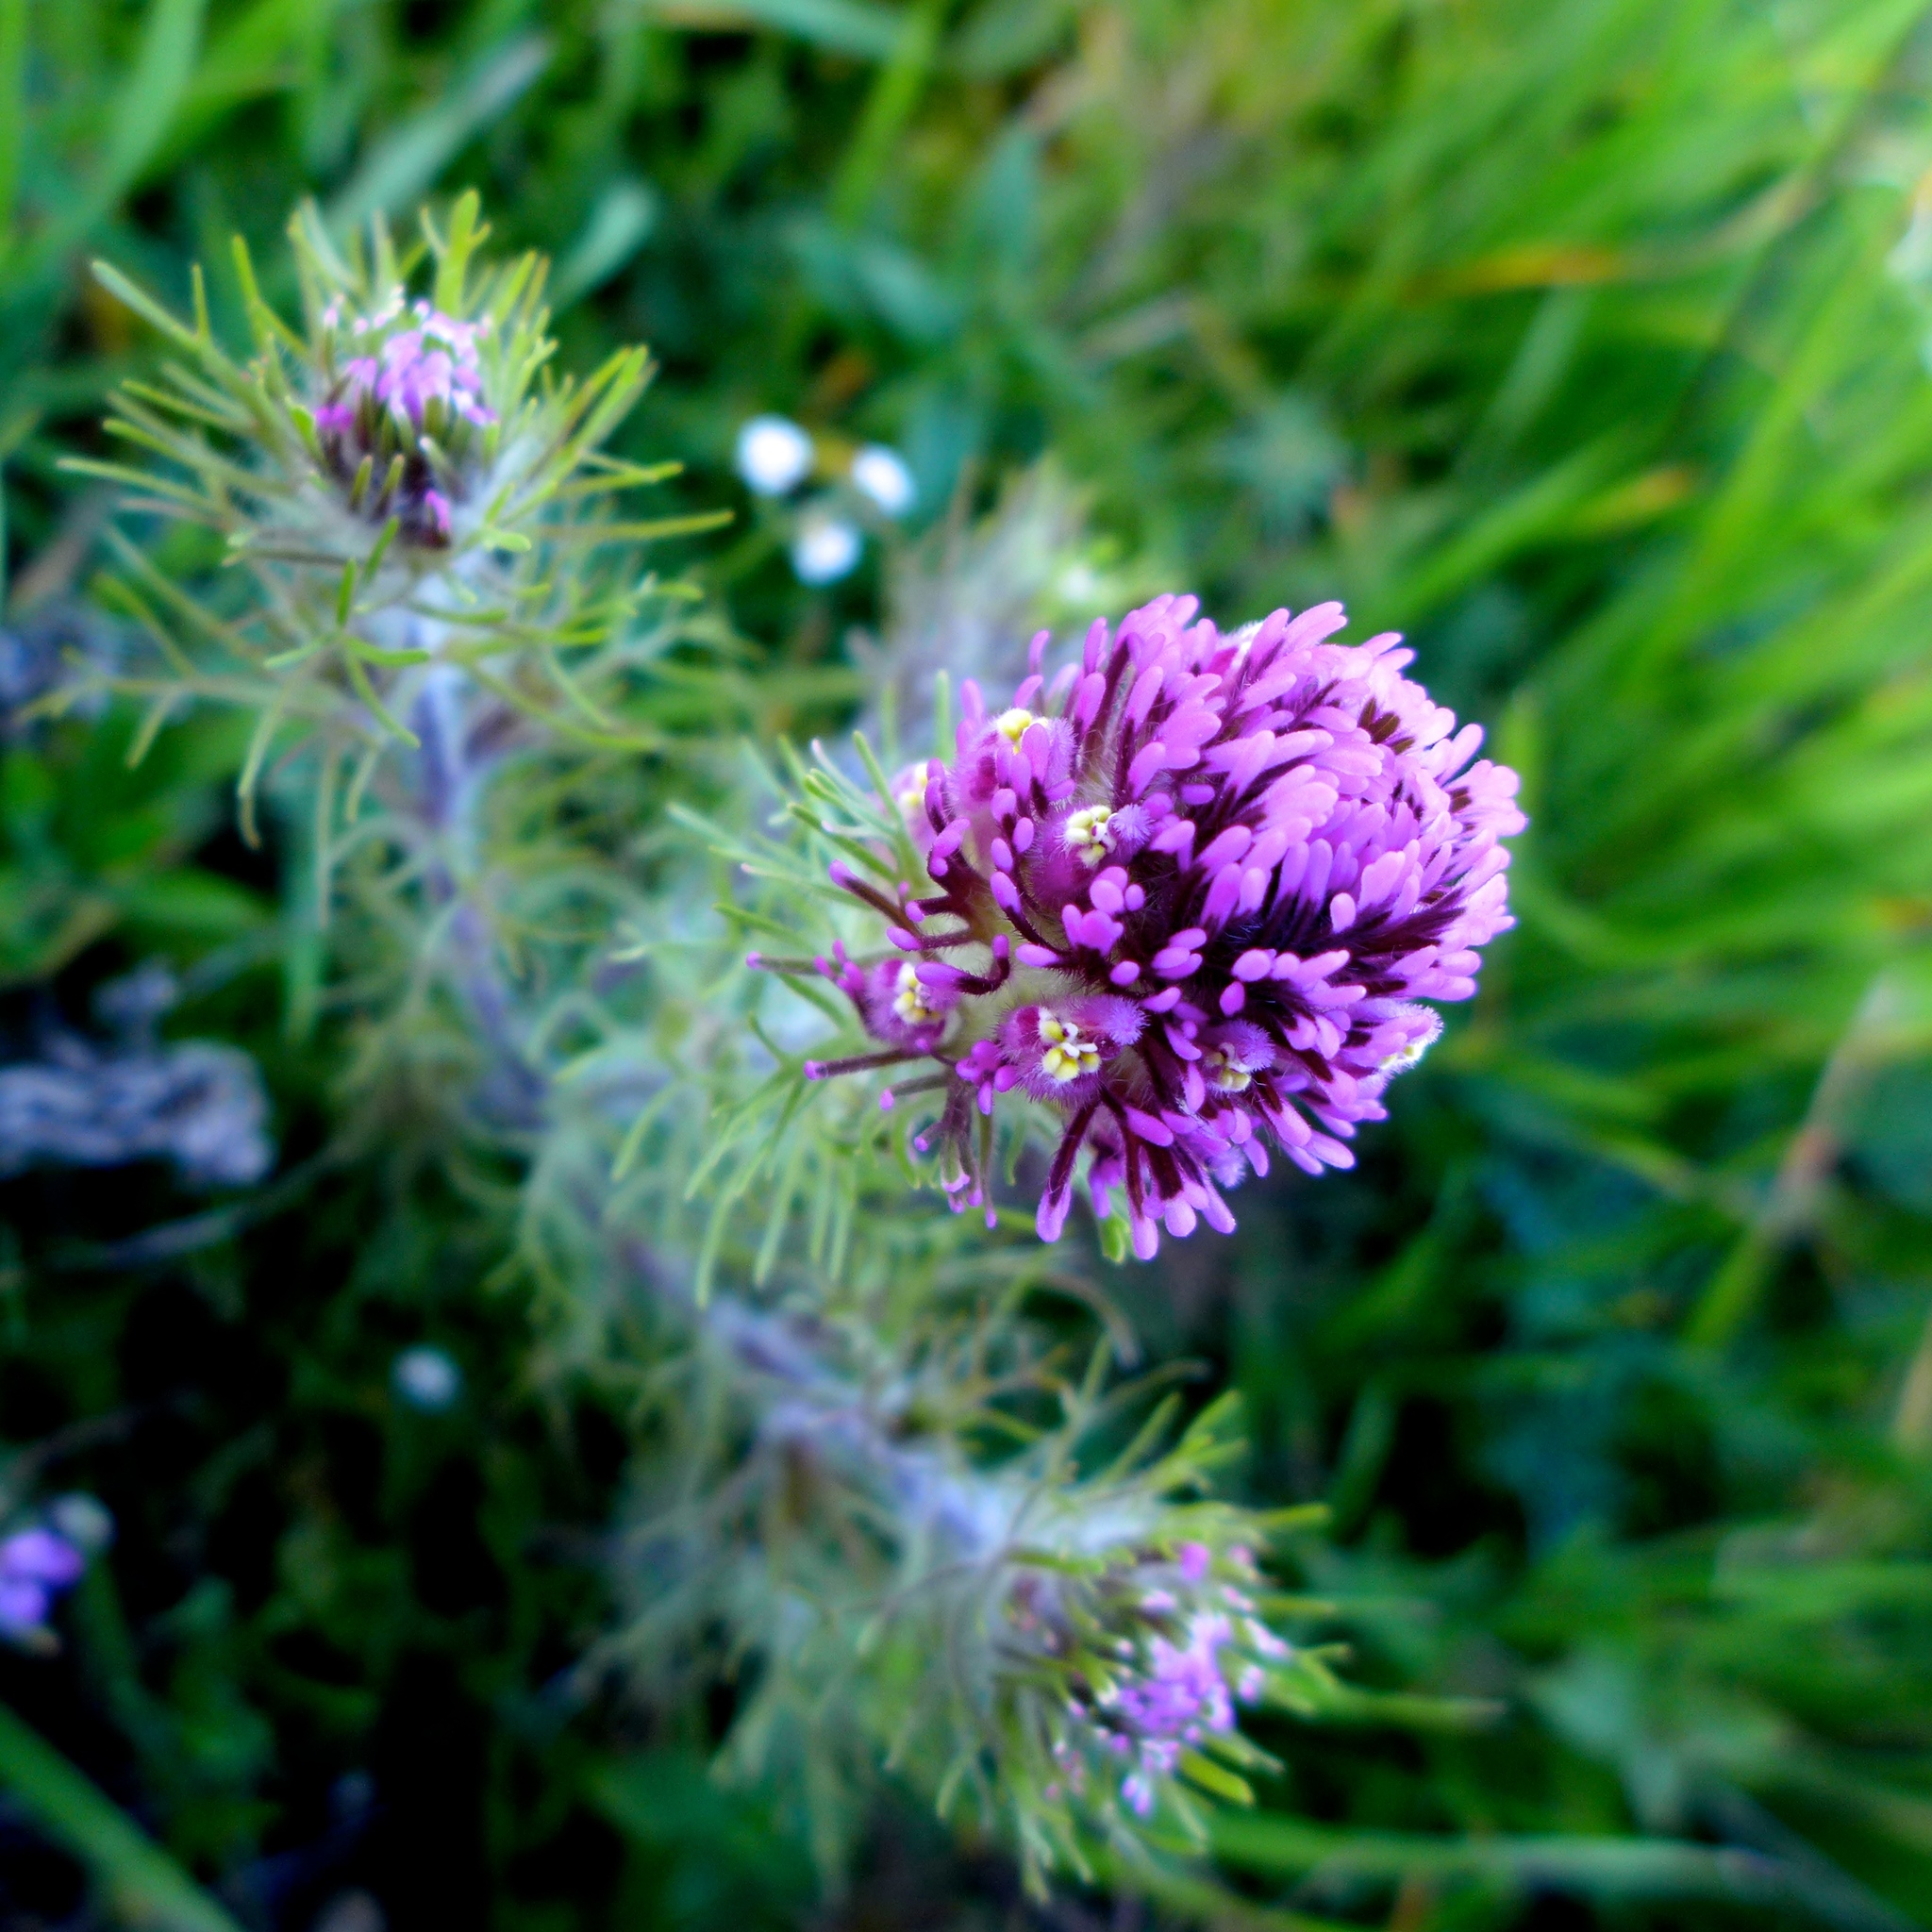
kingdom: Plantae
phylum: Tracheophyta
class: Magnoliopsida
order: Lamiales
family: Orobanchaceae
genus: Castilleja
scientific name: Castilleja exserta
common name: Purple owl-clover
